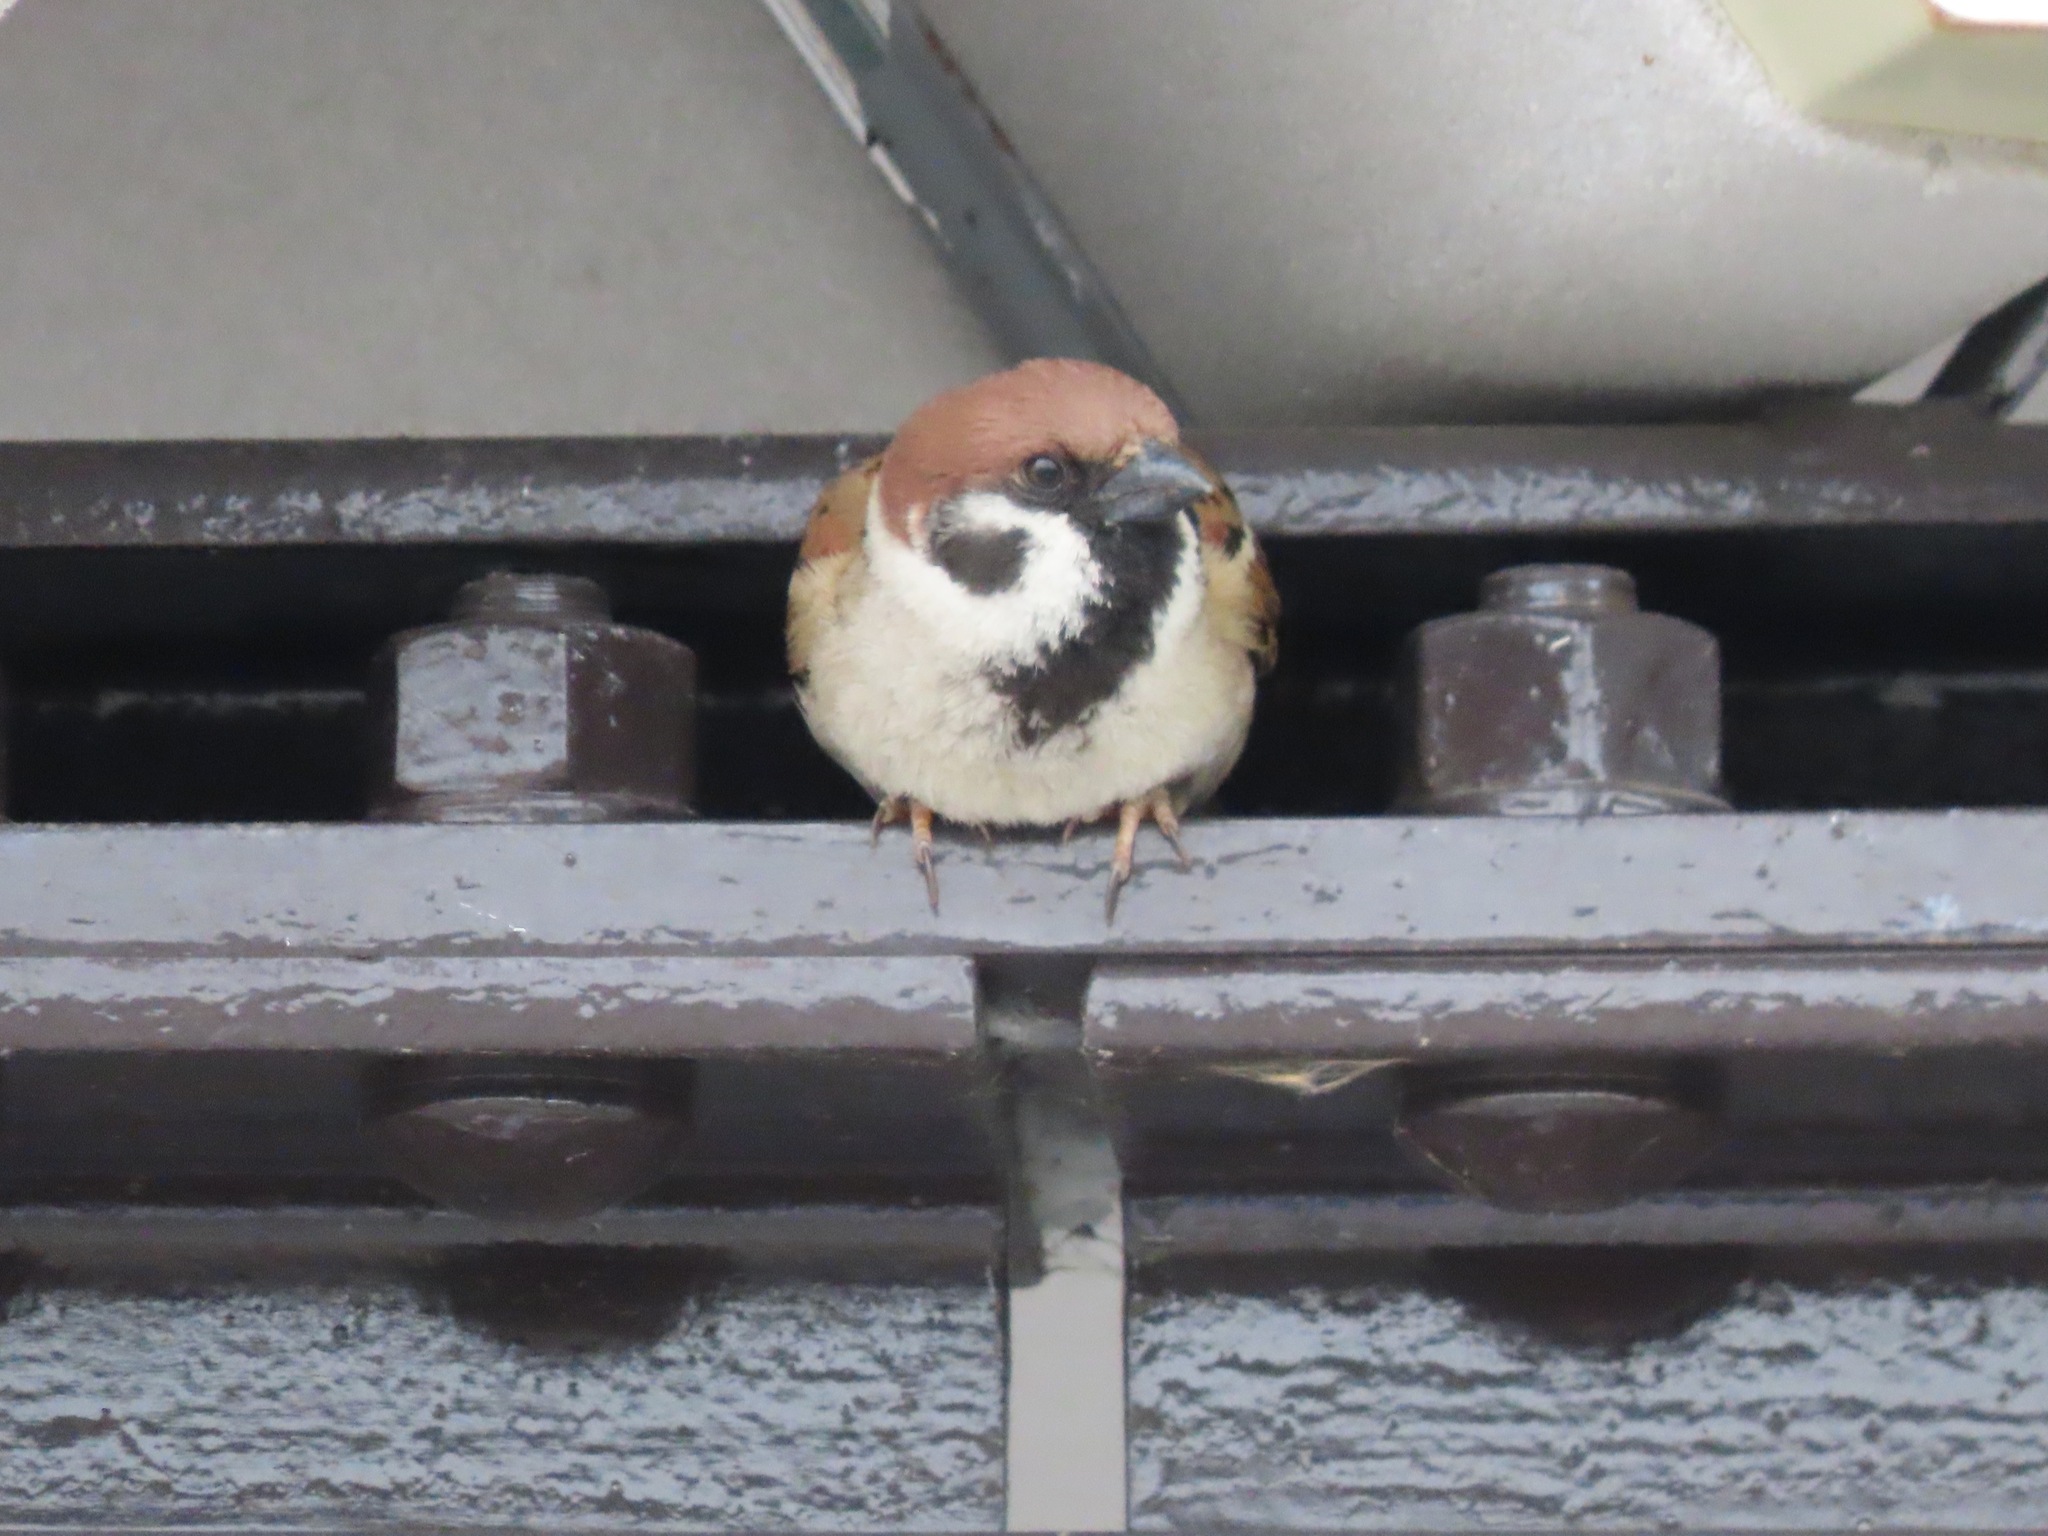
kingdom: Animalia
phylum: Chordata
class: Aves
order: Passeriformes
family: Passeridae
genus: Passer
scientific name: Passer montanus
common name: Eurasian tree sparrow
